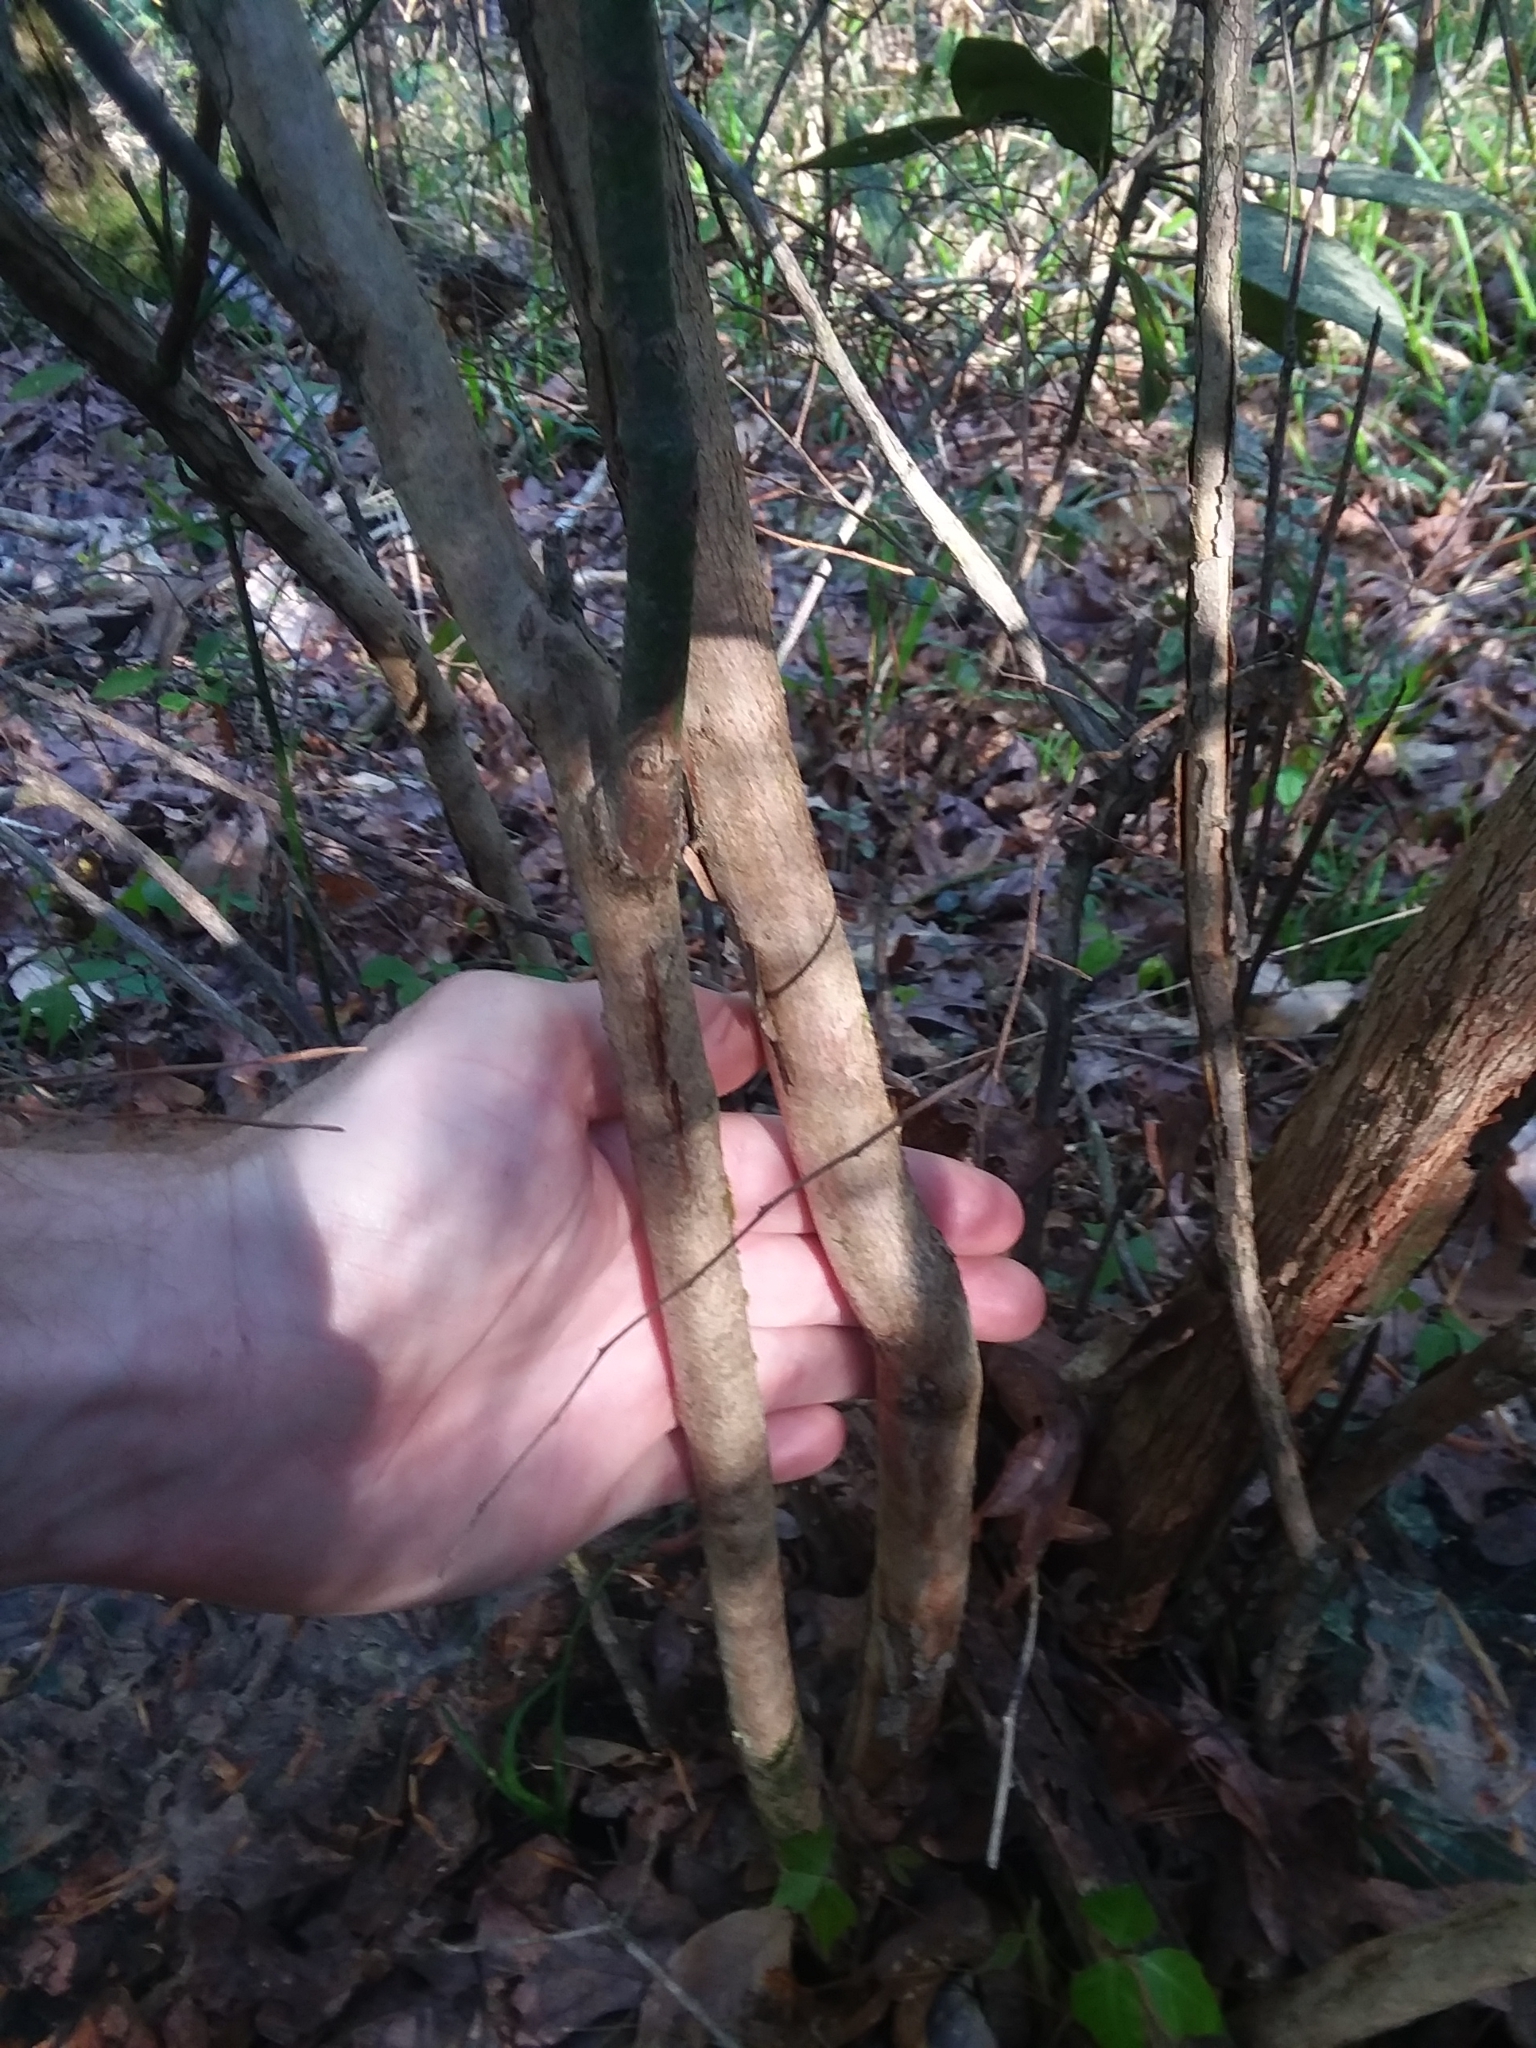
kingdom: Plantae
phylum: Tracheophyta
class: Magnoliopsida
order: Ericales
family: Ericaceae
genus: Vaccinium
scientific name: Vaccinium corymbosum
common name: Blueberry
